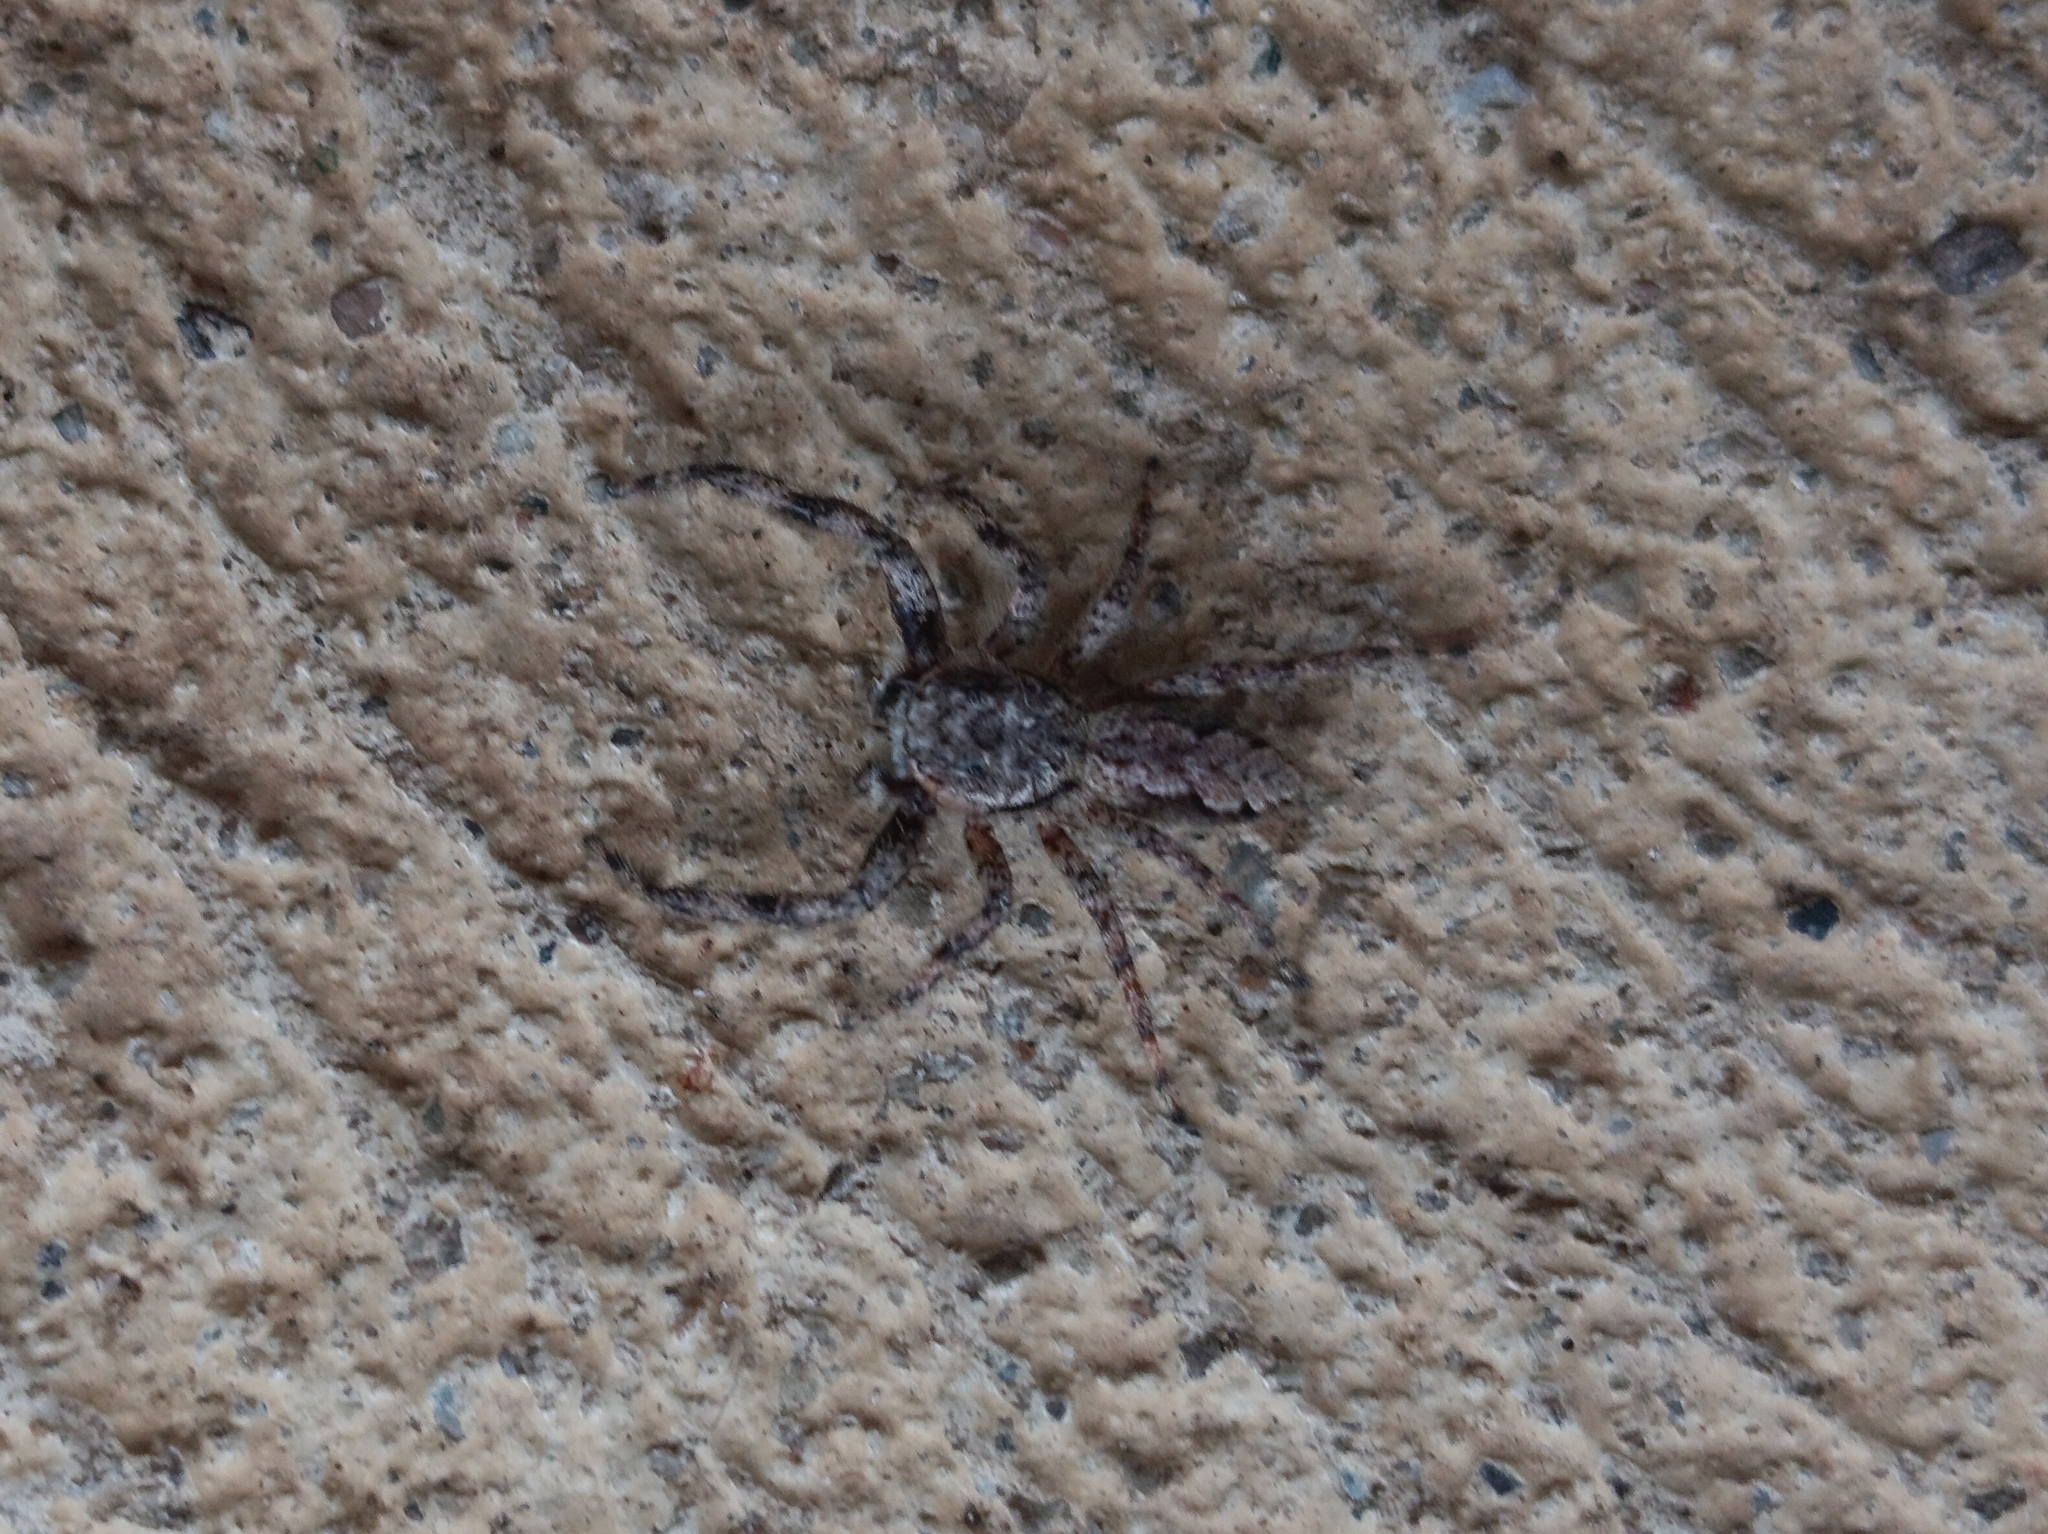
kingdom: Animalia
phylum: Arthropoda
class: Arachnida
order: Araneae
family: Salticidae
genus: Platycryptus
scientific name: Platycryptus undatus
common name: Tan jumping spider
